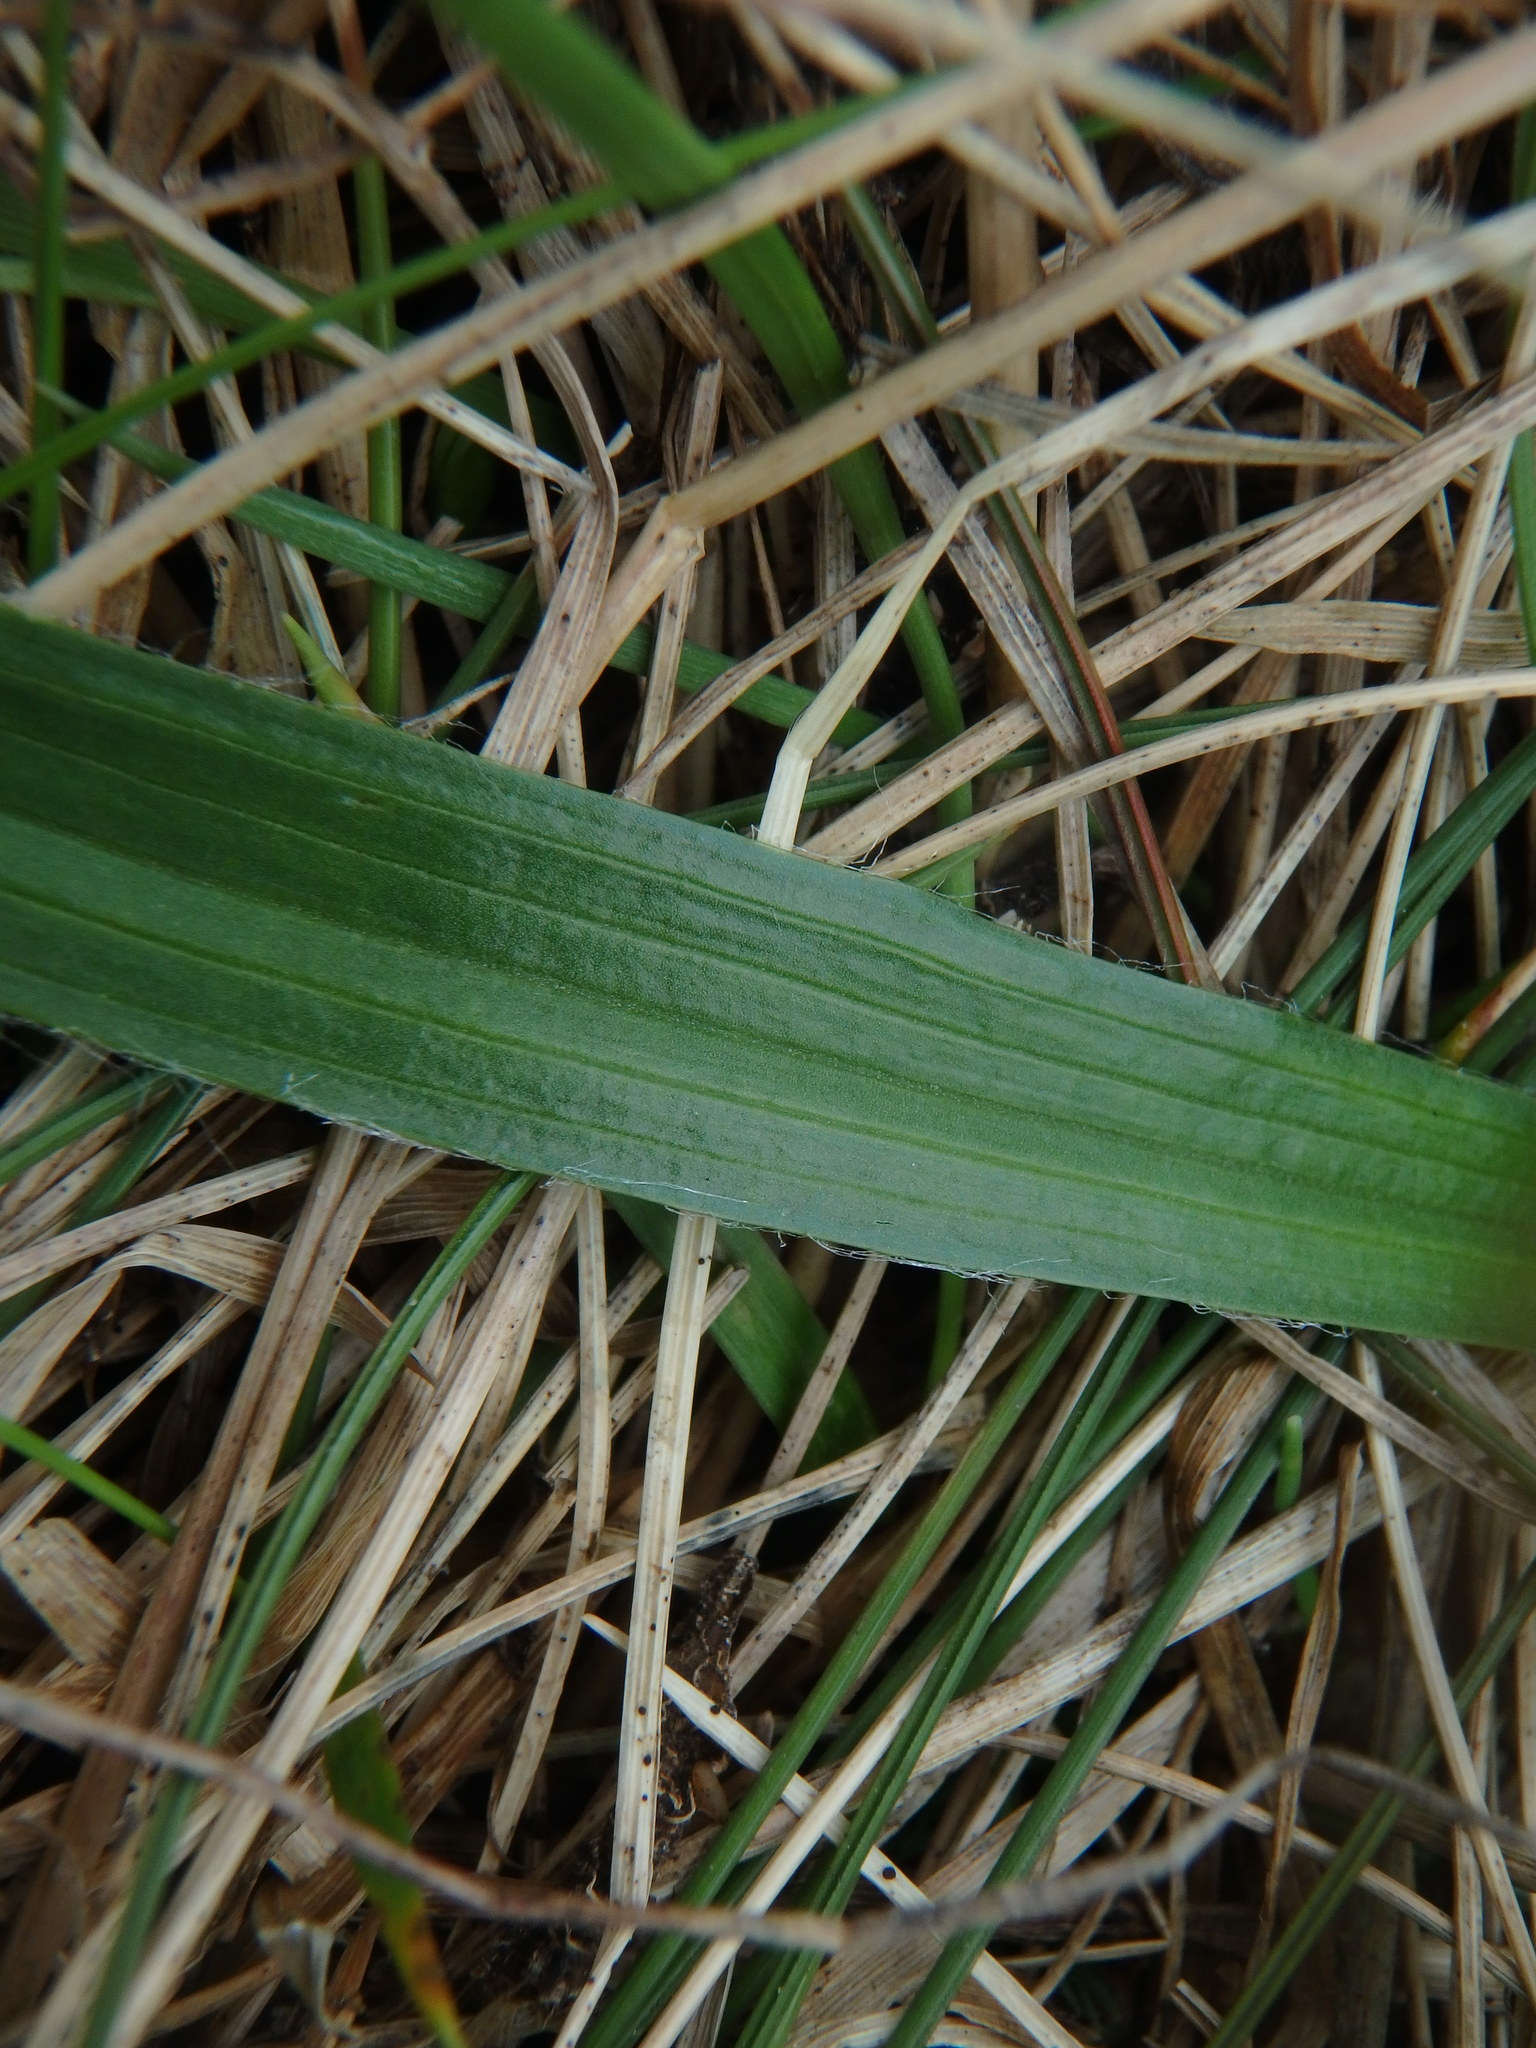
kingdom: Plantae
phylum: Tracheophyta
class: Magnoliopsida
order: Lamiales
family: Plantaginaceae
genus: Plantago
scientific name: Plantago atrata
